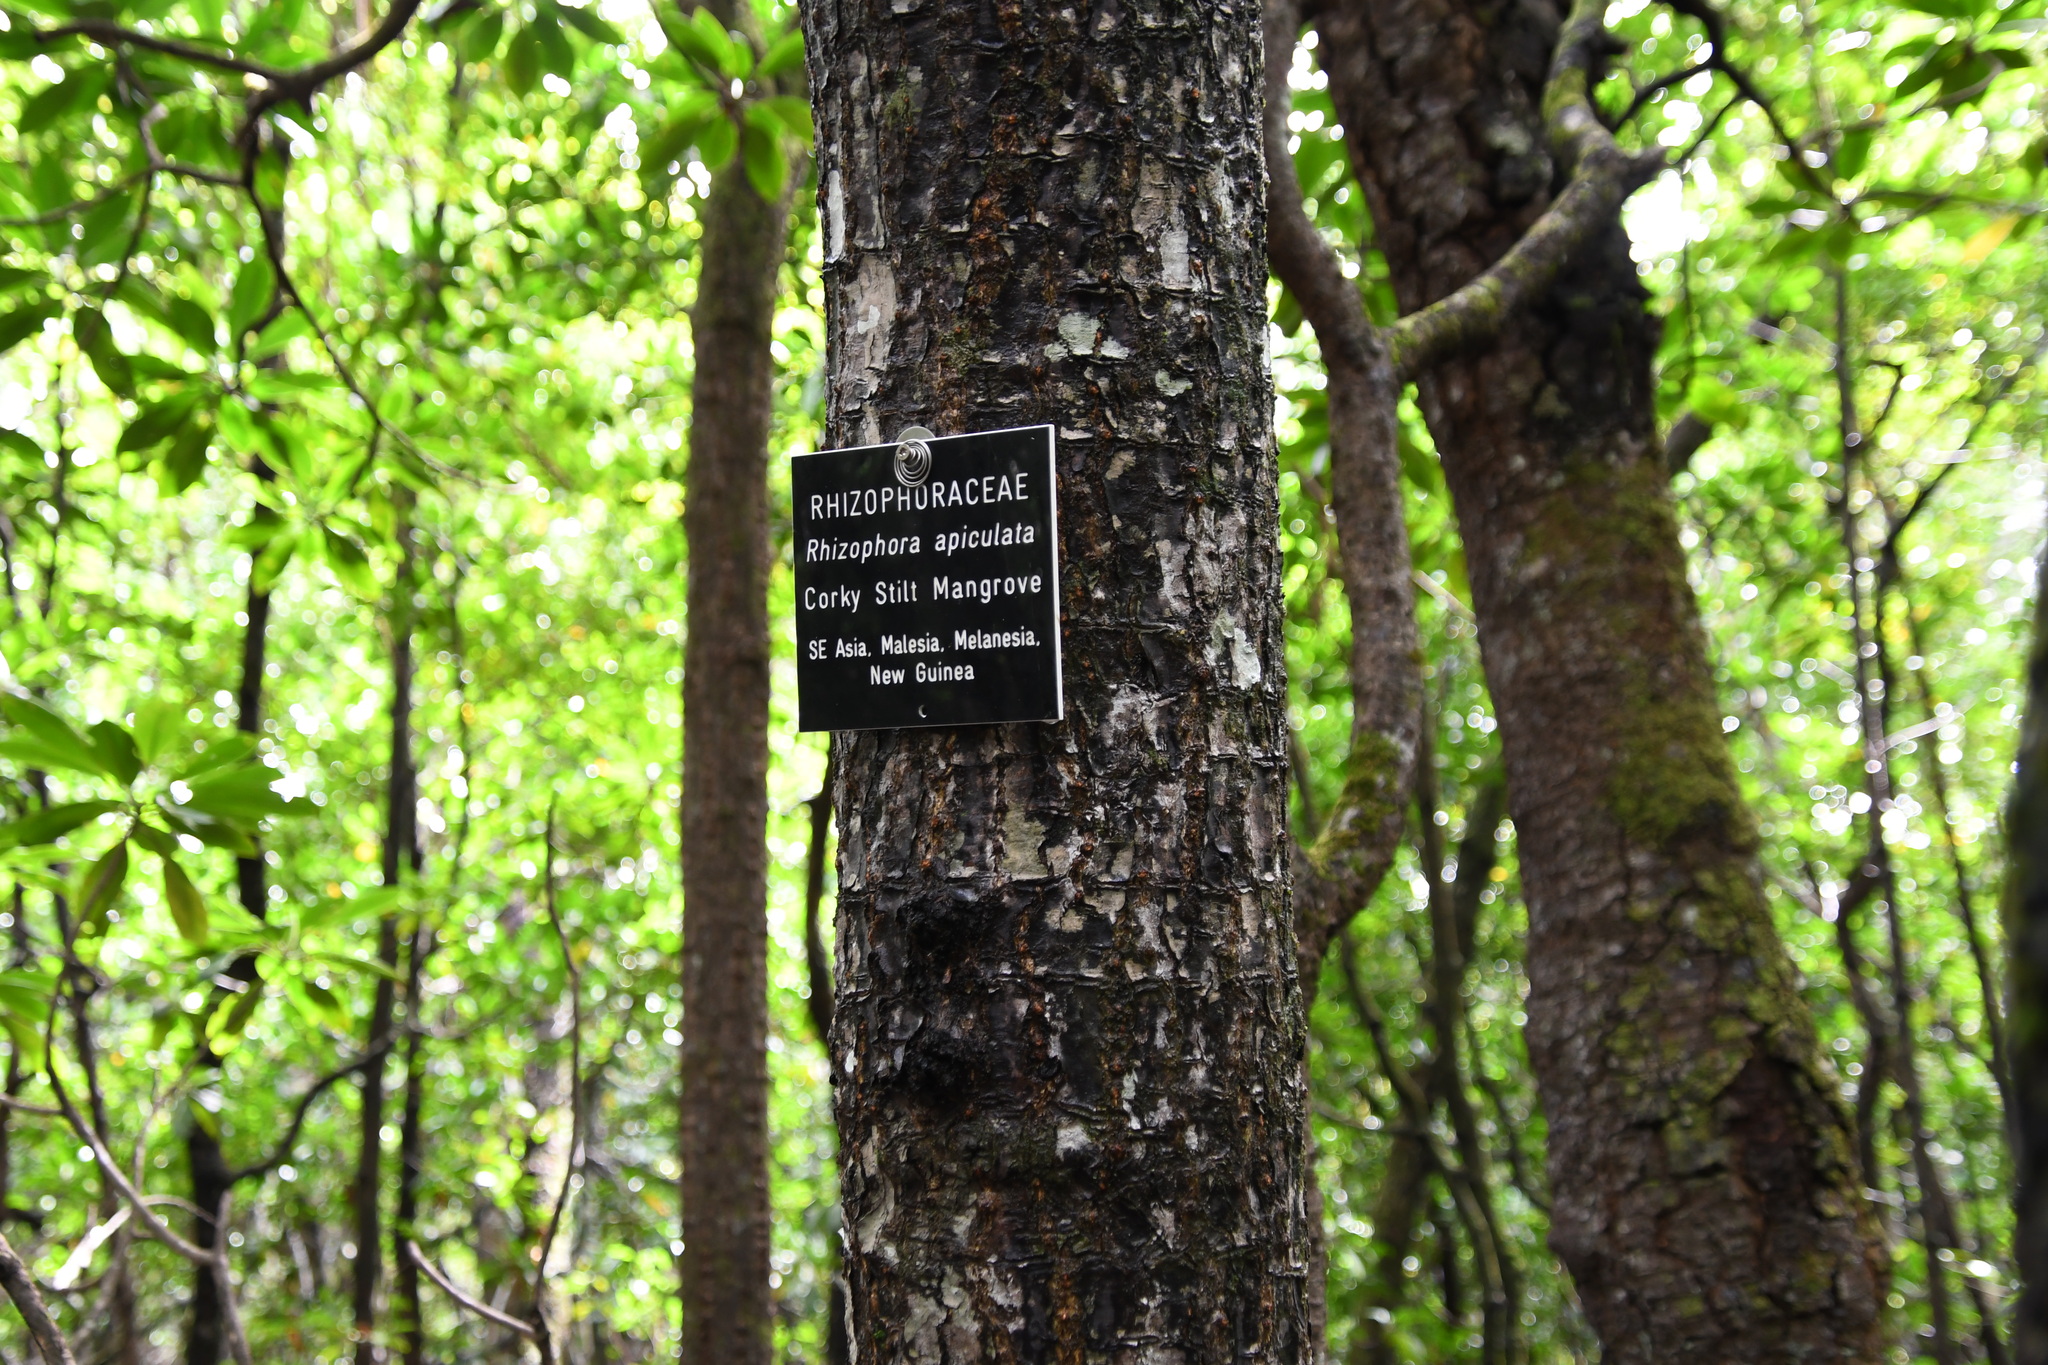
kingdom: Plantae
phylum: Tracheophyta
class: Magnoliopsida
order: Malpighiales
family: Rhizophoraceae
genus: Rhizophora
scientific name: Rhizophora apiculata
